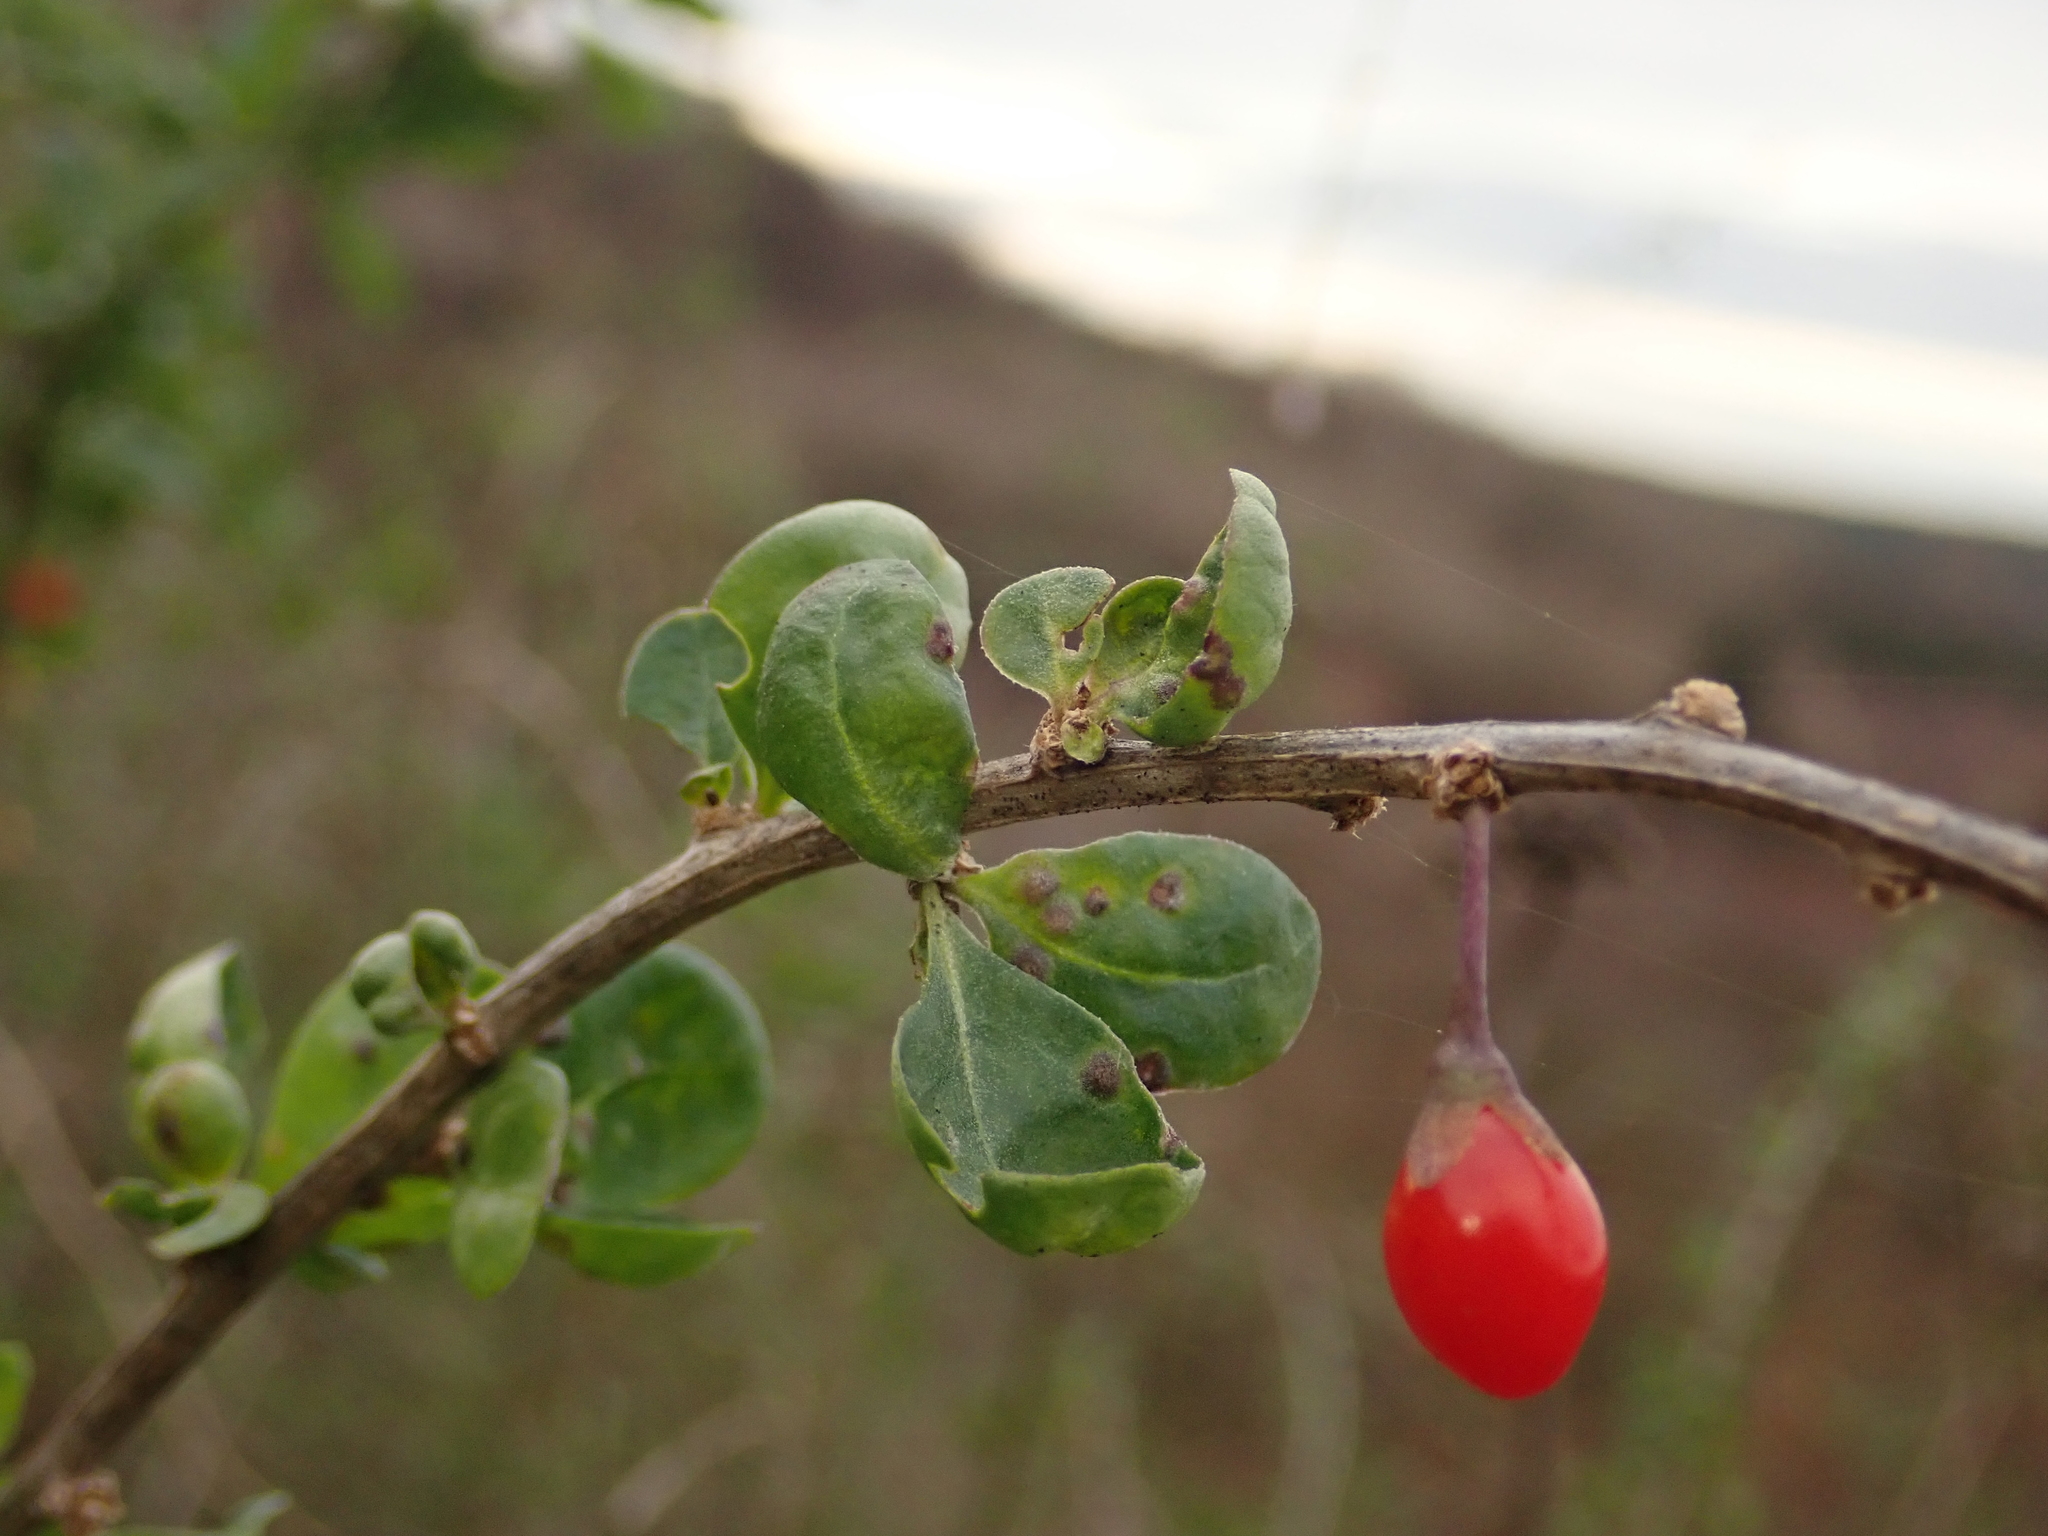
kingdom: Plantae
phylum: Tracheophyta
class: Magnoliopsida
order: Solanales
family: Solanaceae
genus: Lycium
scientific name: Lycium barbarum
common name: Duke of argyll's teaplant
